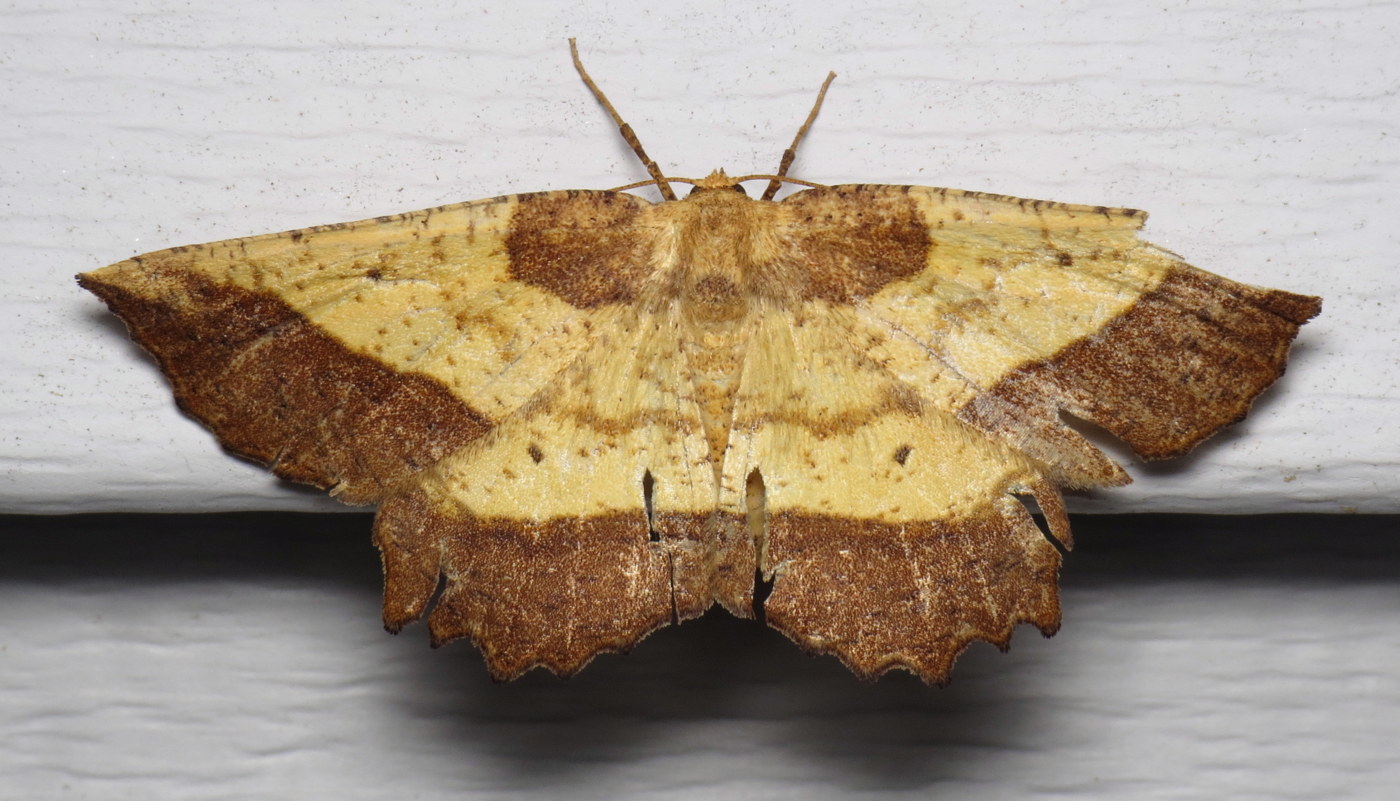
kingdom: Animalia
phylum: Arthropoda
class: Insecta
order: Lepidoptera
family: Geometridae
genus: Euchlaena
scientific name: Euchlaena serrata
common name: Saw wing
